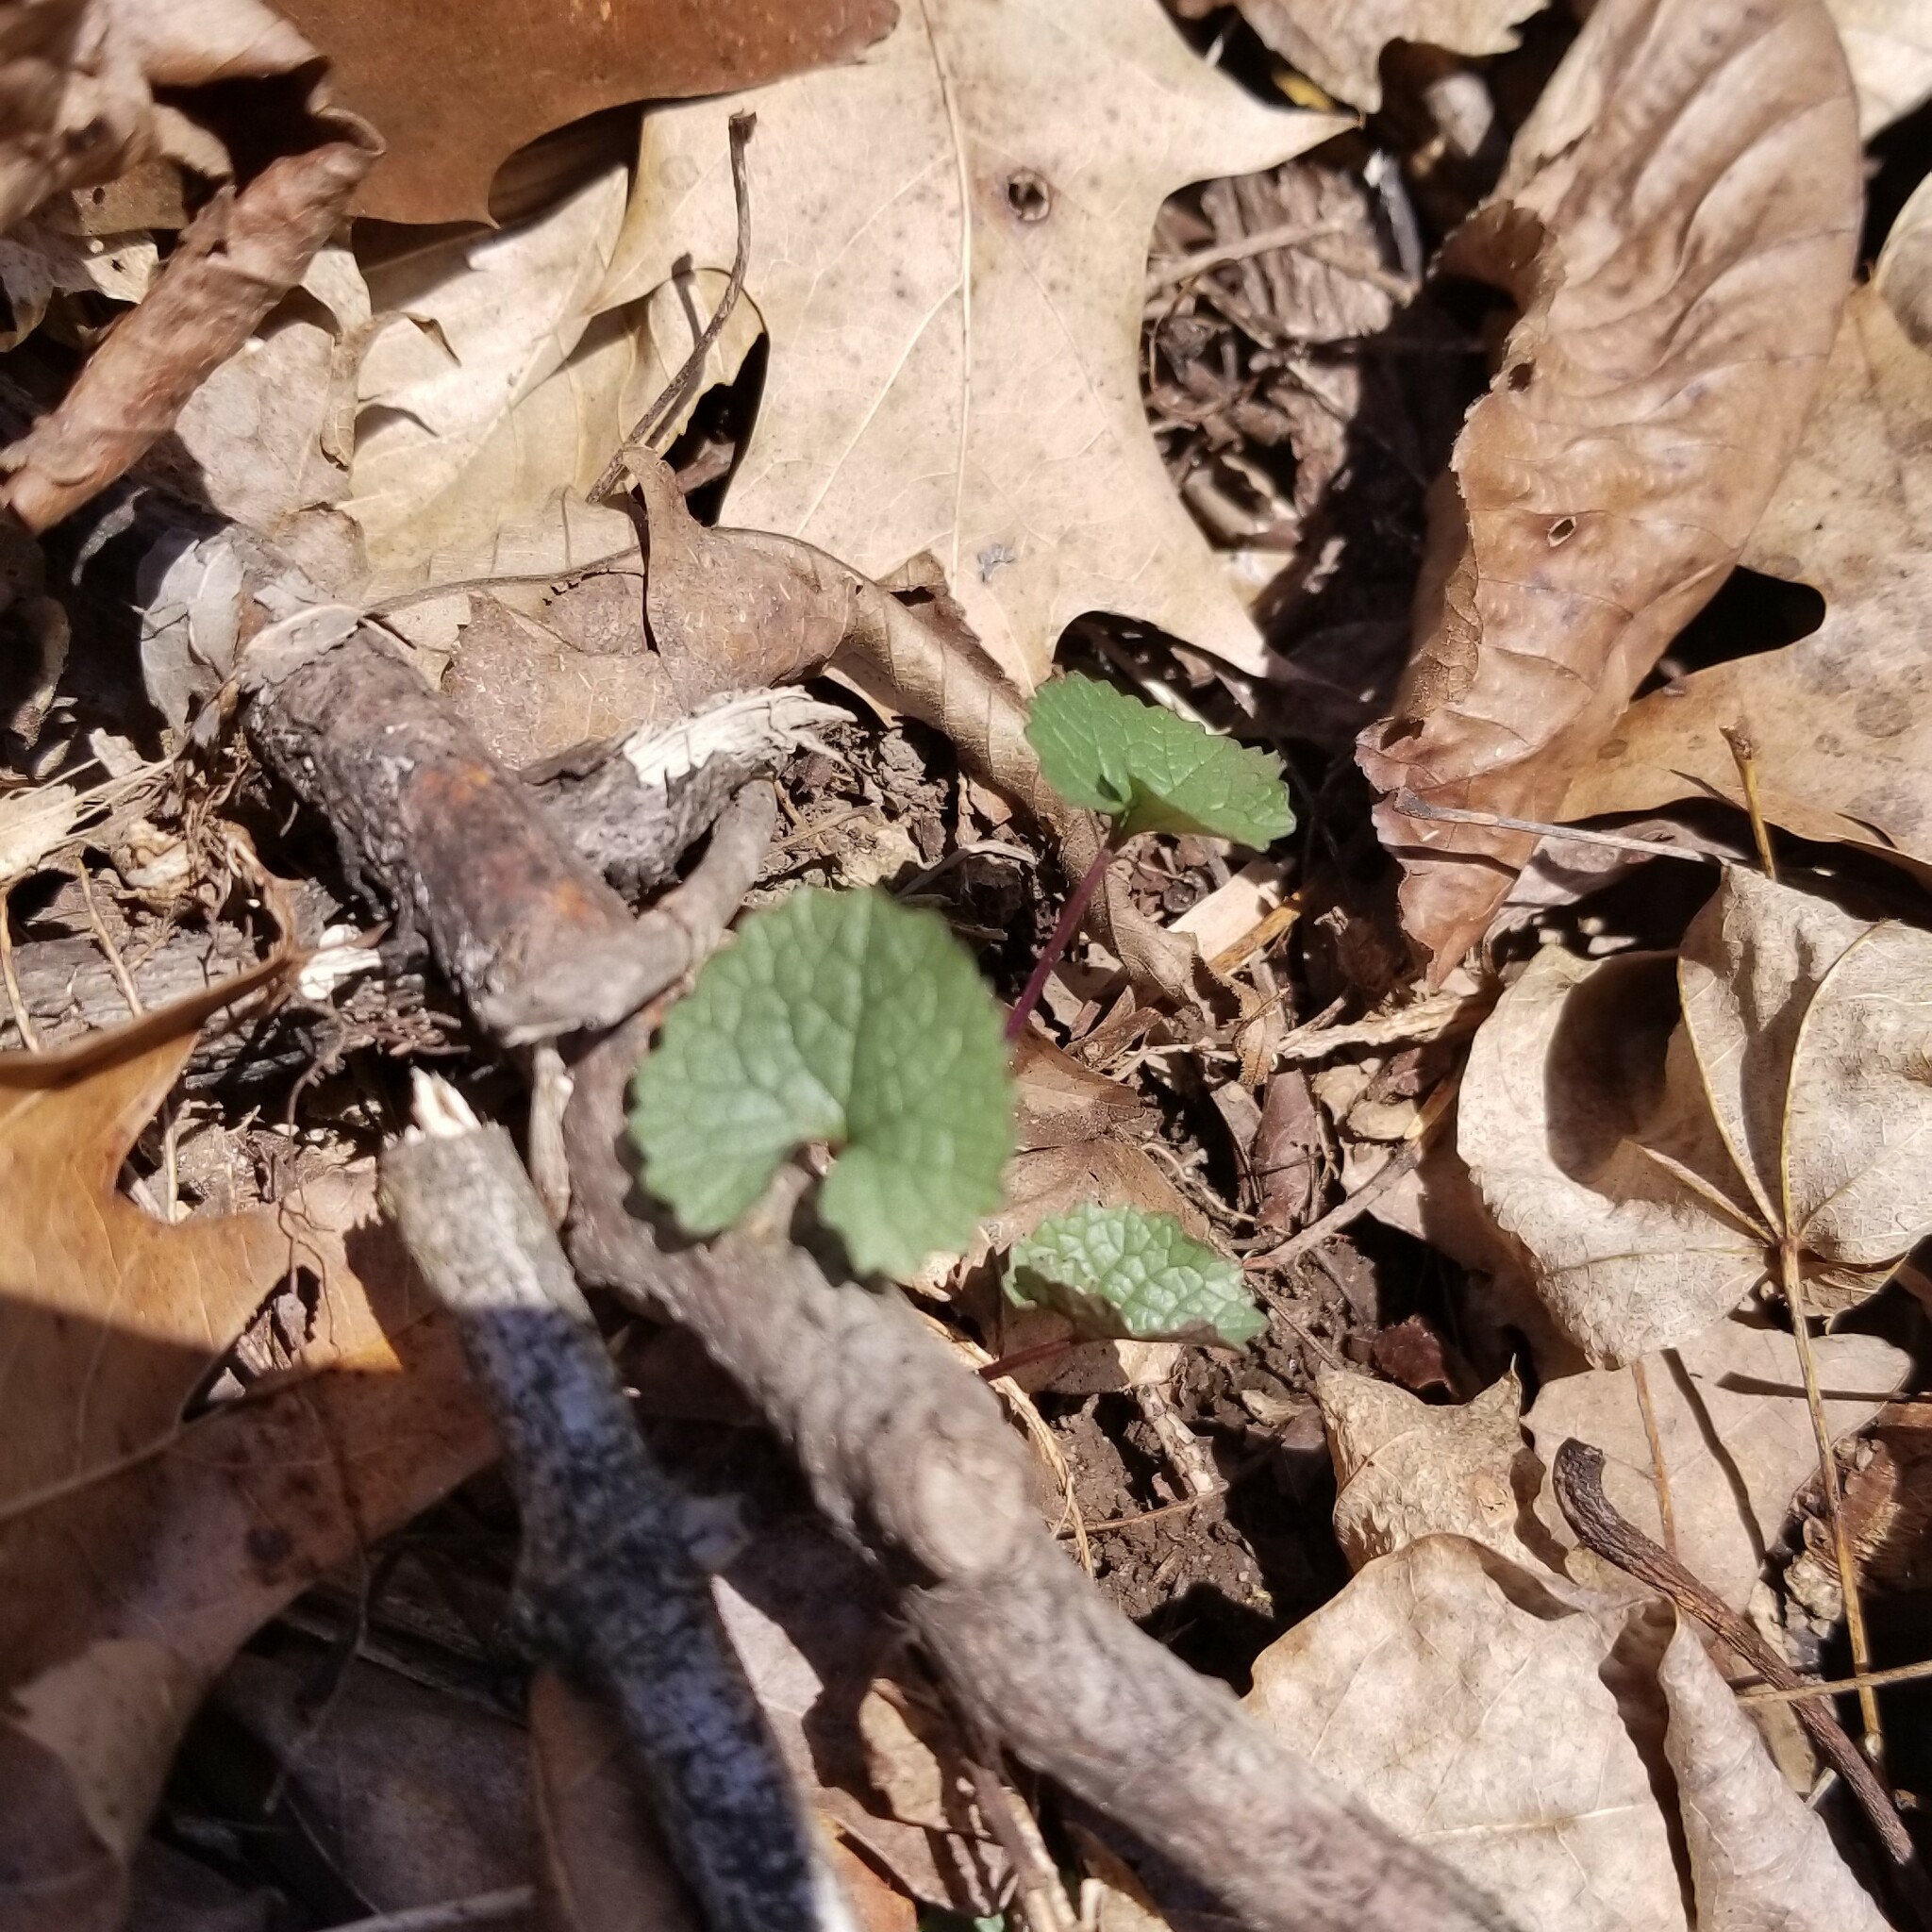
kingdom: Plantae
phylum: Tracheophyta
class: Magnoliopsida
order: Brassicales
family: Brassicaceae
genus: Alliaria
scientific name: Alliaria petiolata
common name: Garlic mustard
